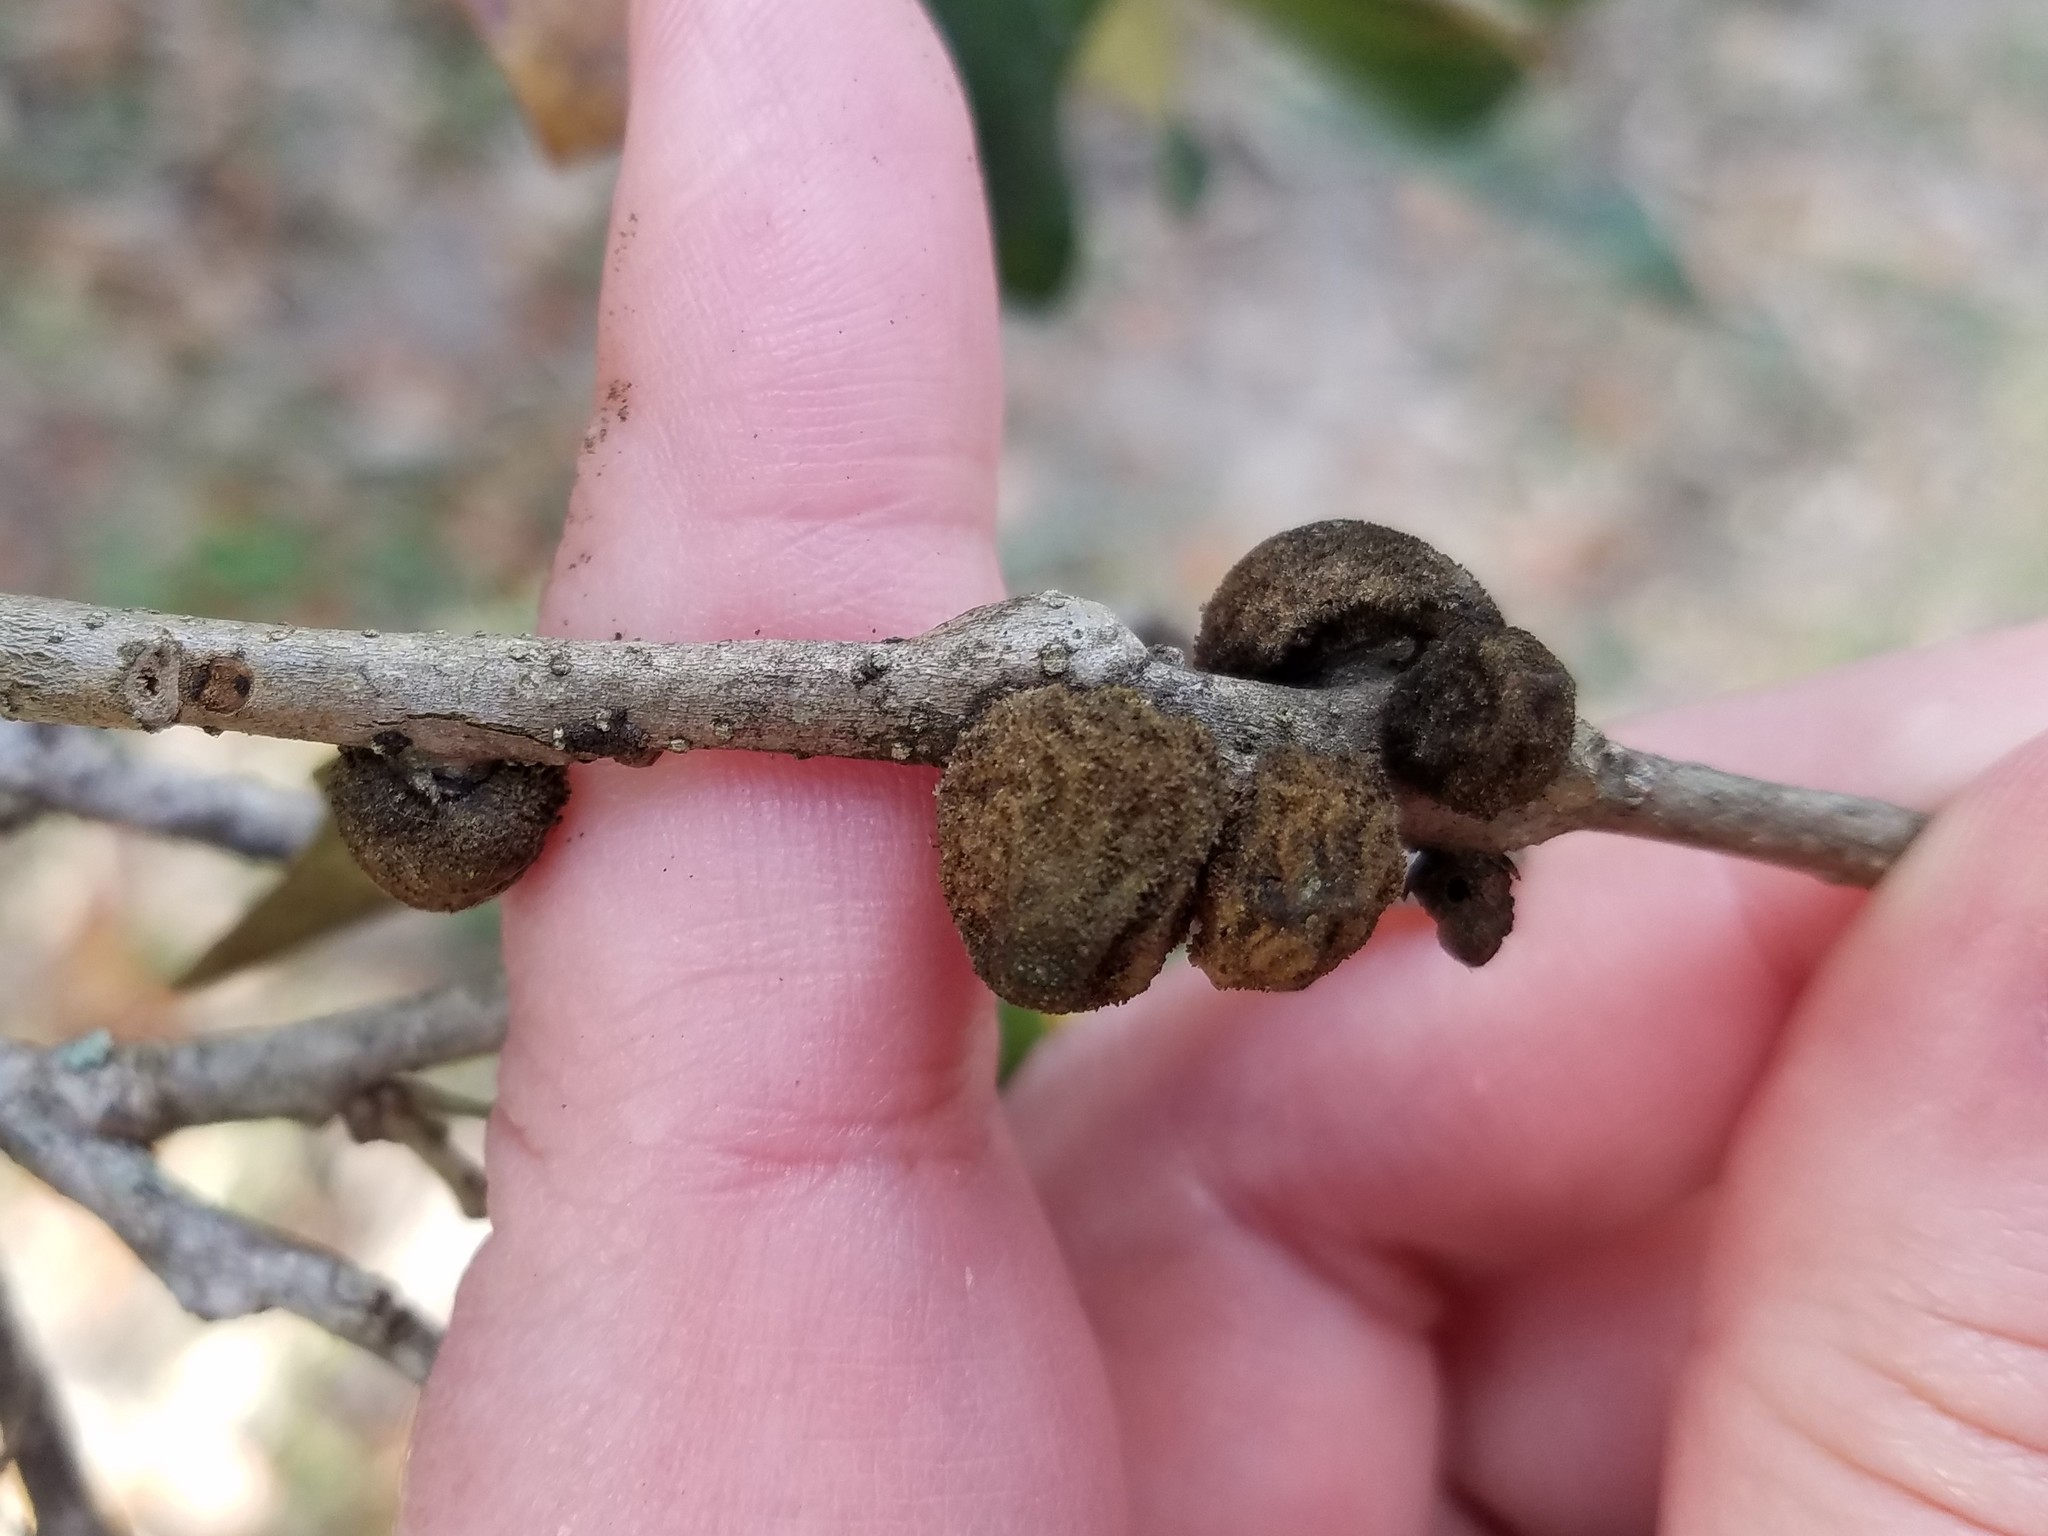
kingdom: Animalia
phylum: Arthropoda
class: Insecta
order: Hymenoptera
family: Cynipidae
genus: Disholcaspis
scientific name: Disholcaspis
